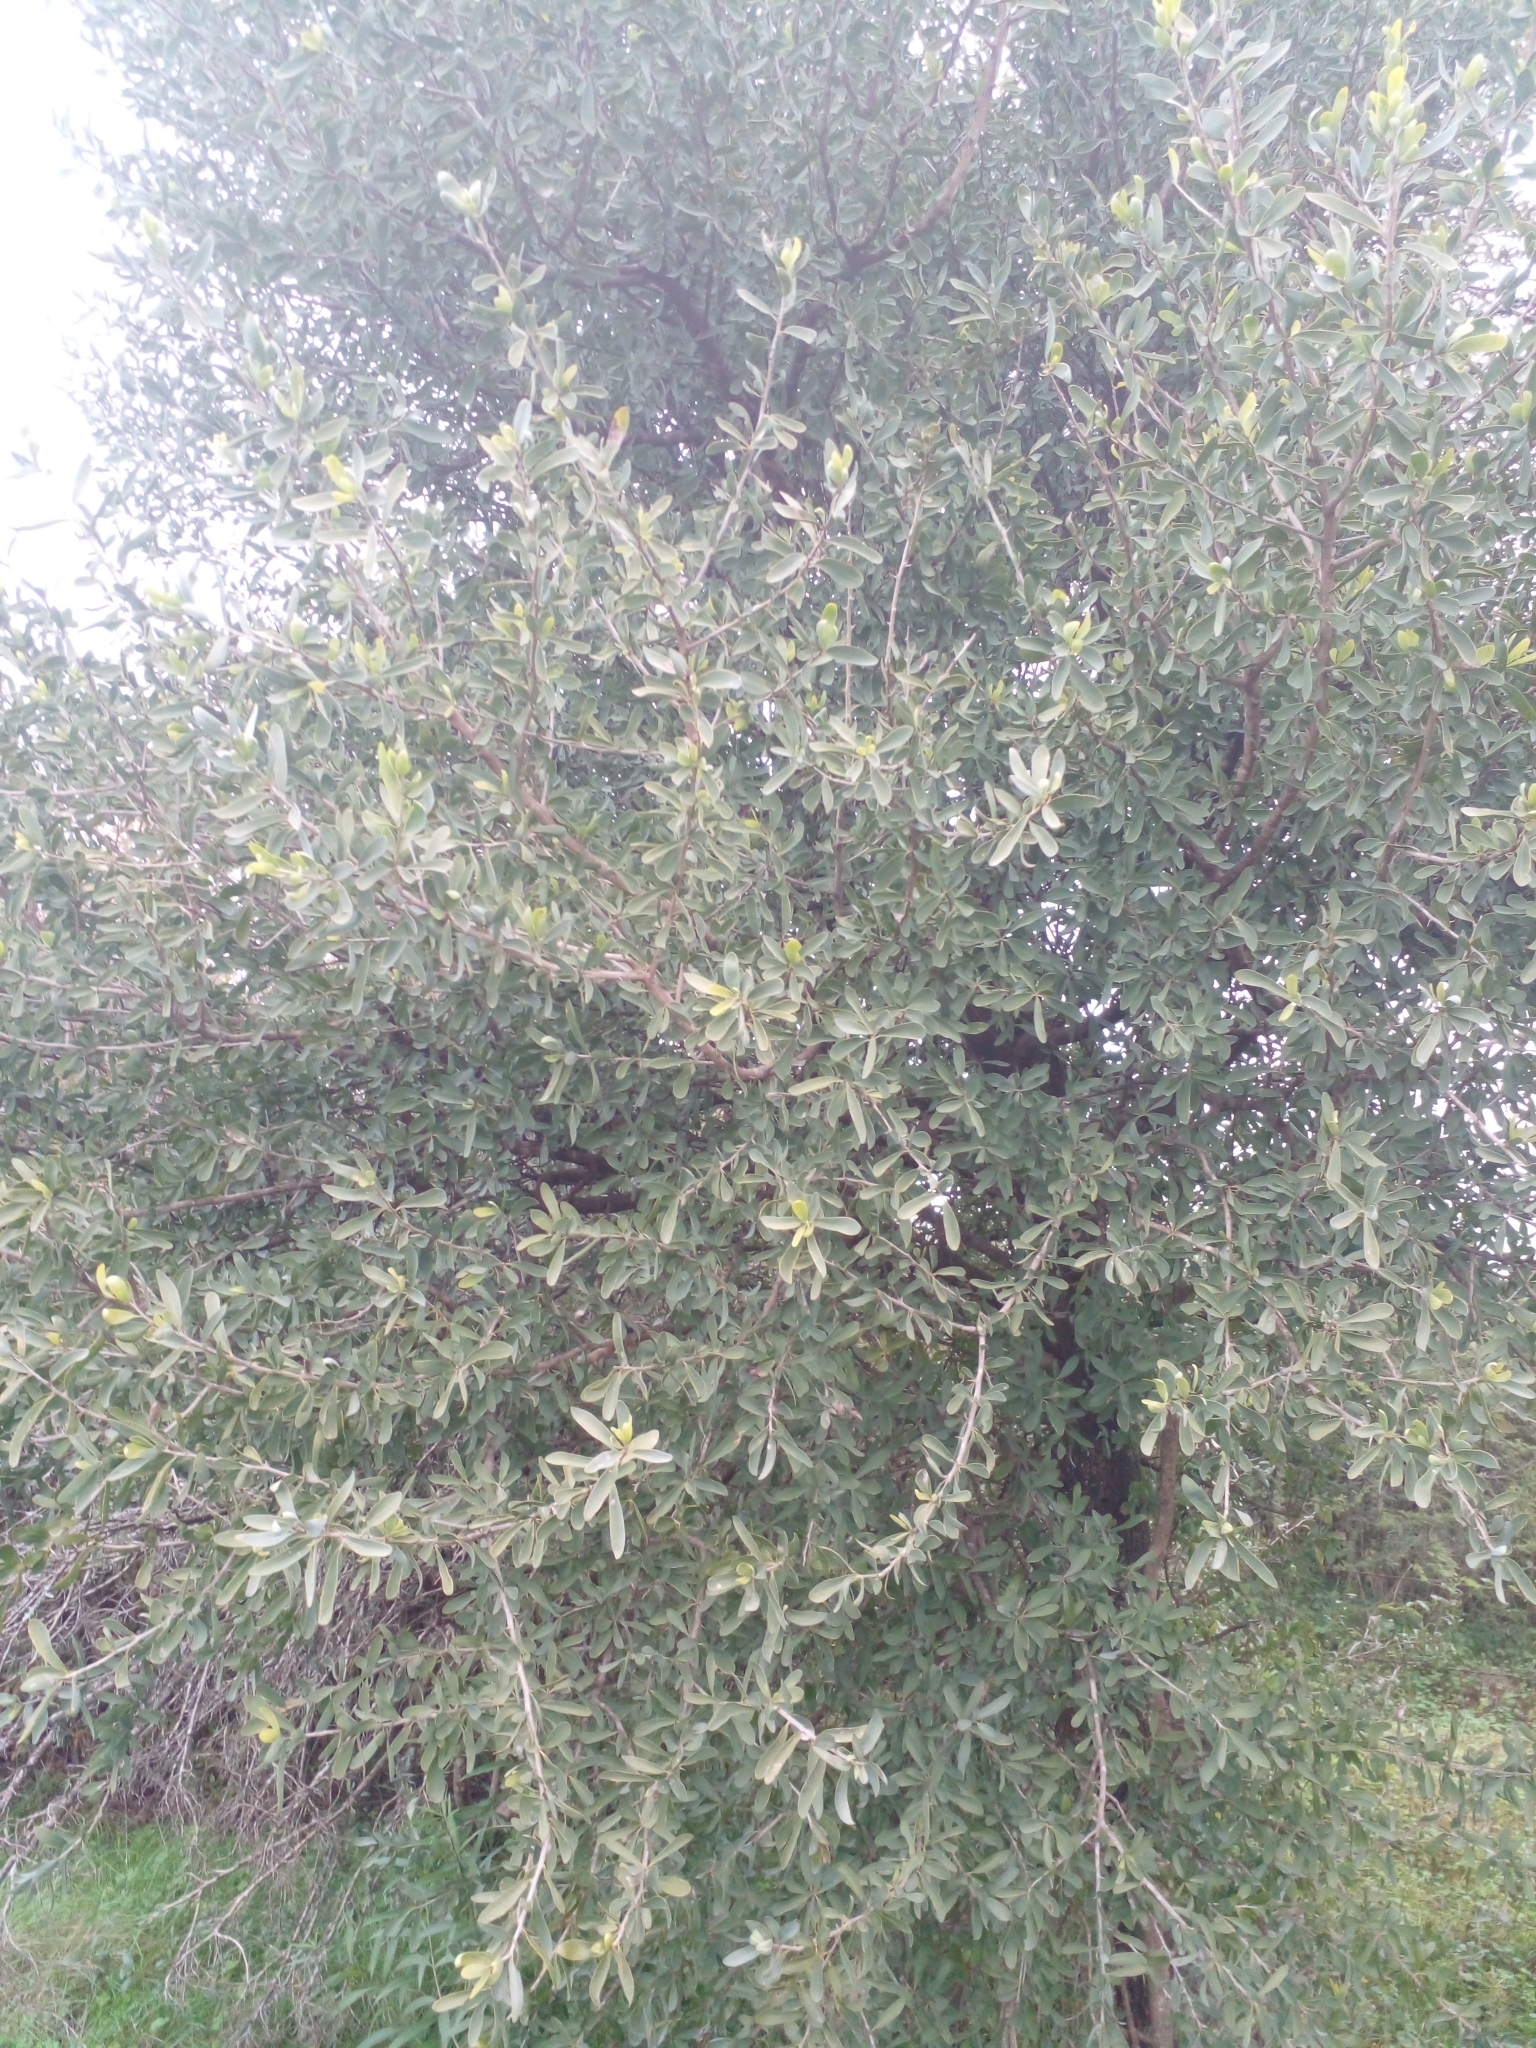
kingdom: Plantae
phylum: Tracheophyta
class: Magnoliopsida
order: Santalales
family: Cervantesiaceae
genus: Acanthosyris
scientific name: Acanthosyris spinescens
